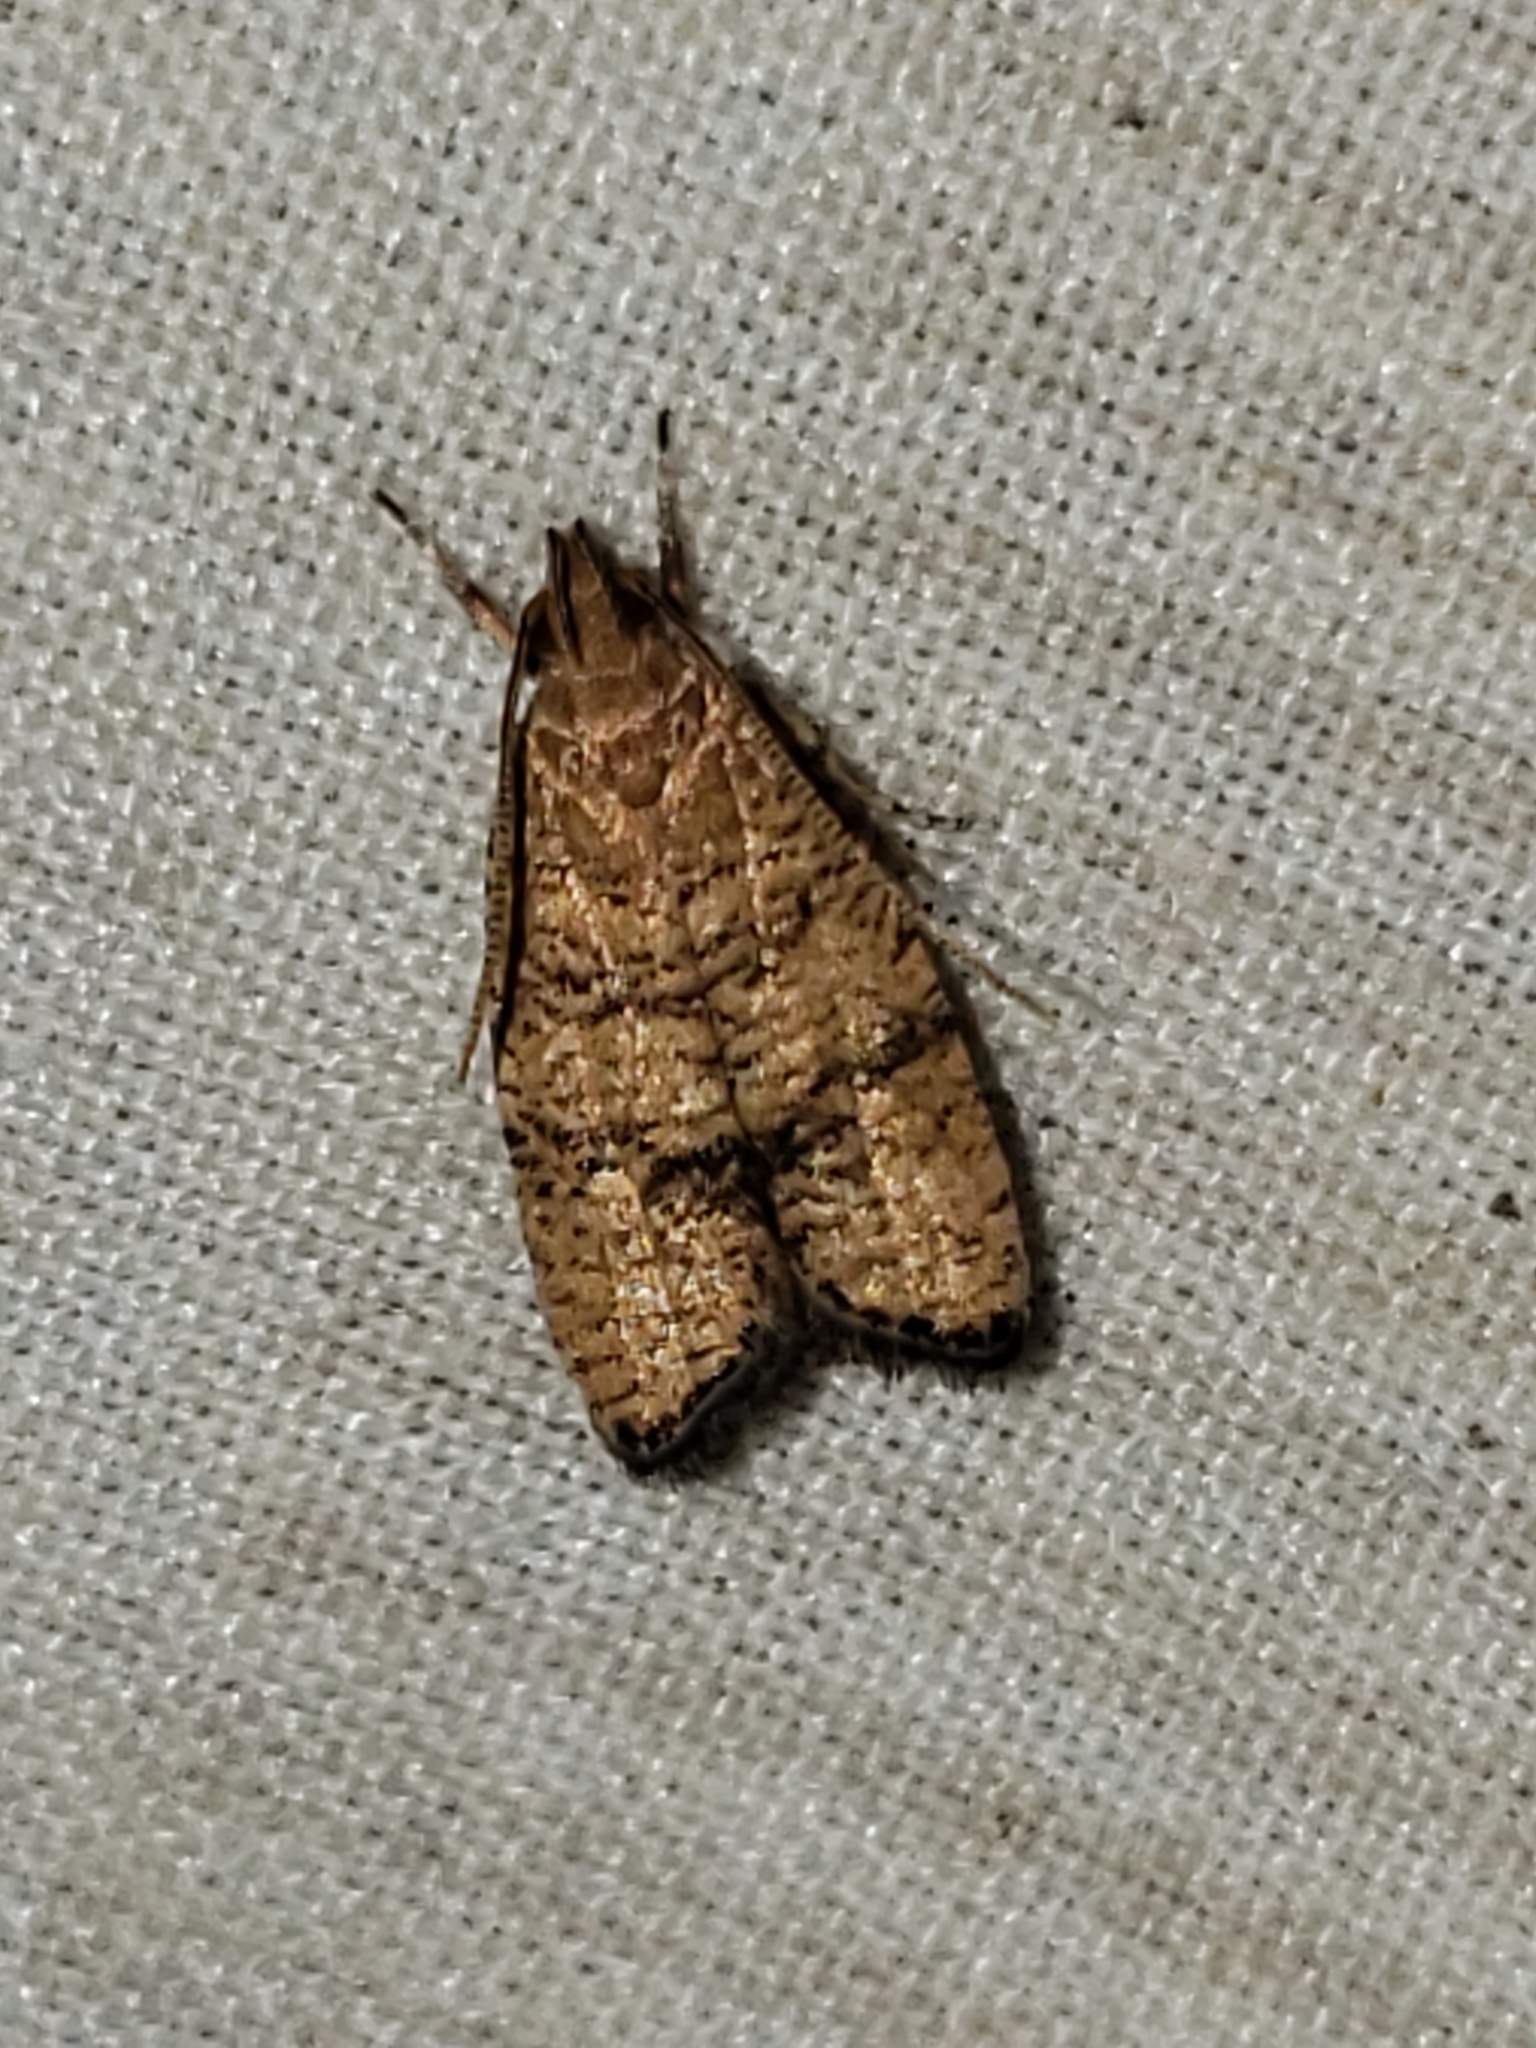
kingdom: Animalia
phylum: Arthropoda
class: Insecta
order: Lepidoptera
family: Depressariidae
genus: Psilocorsis
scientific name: Psilocorsis quercicella
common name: Oak leaftier moth
